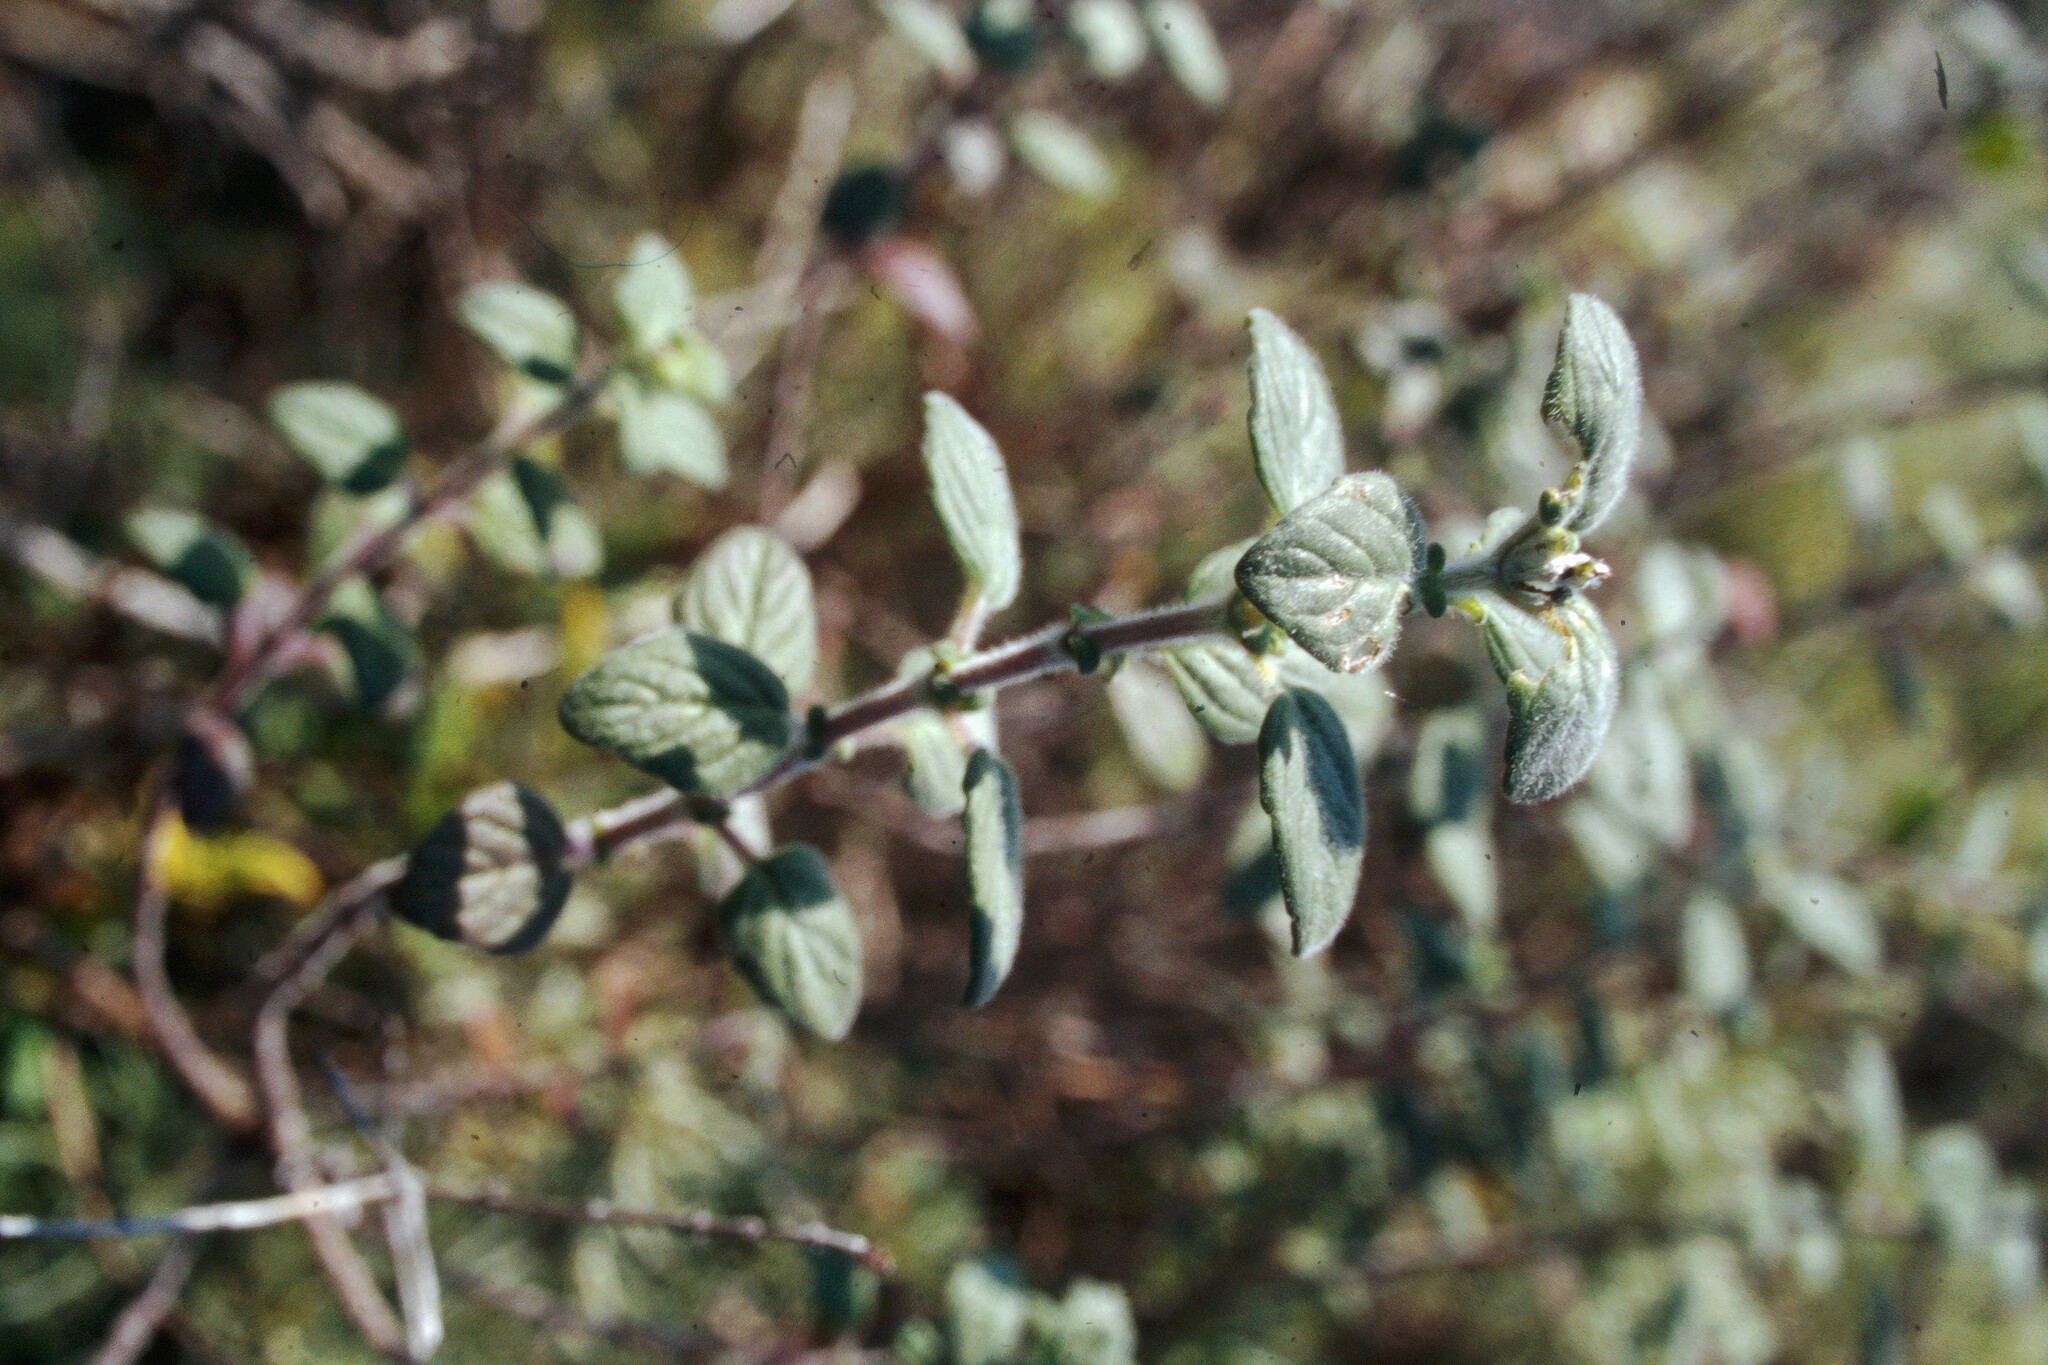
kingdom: Plantae
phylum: Tracheophyta
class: Magnoliopsida
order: Lamiales
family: Lamiaceae
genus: Monardella
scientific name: Monardella odoratissima
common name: Pacific monardella
